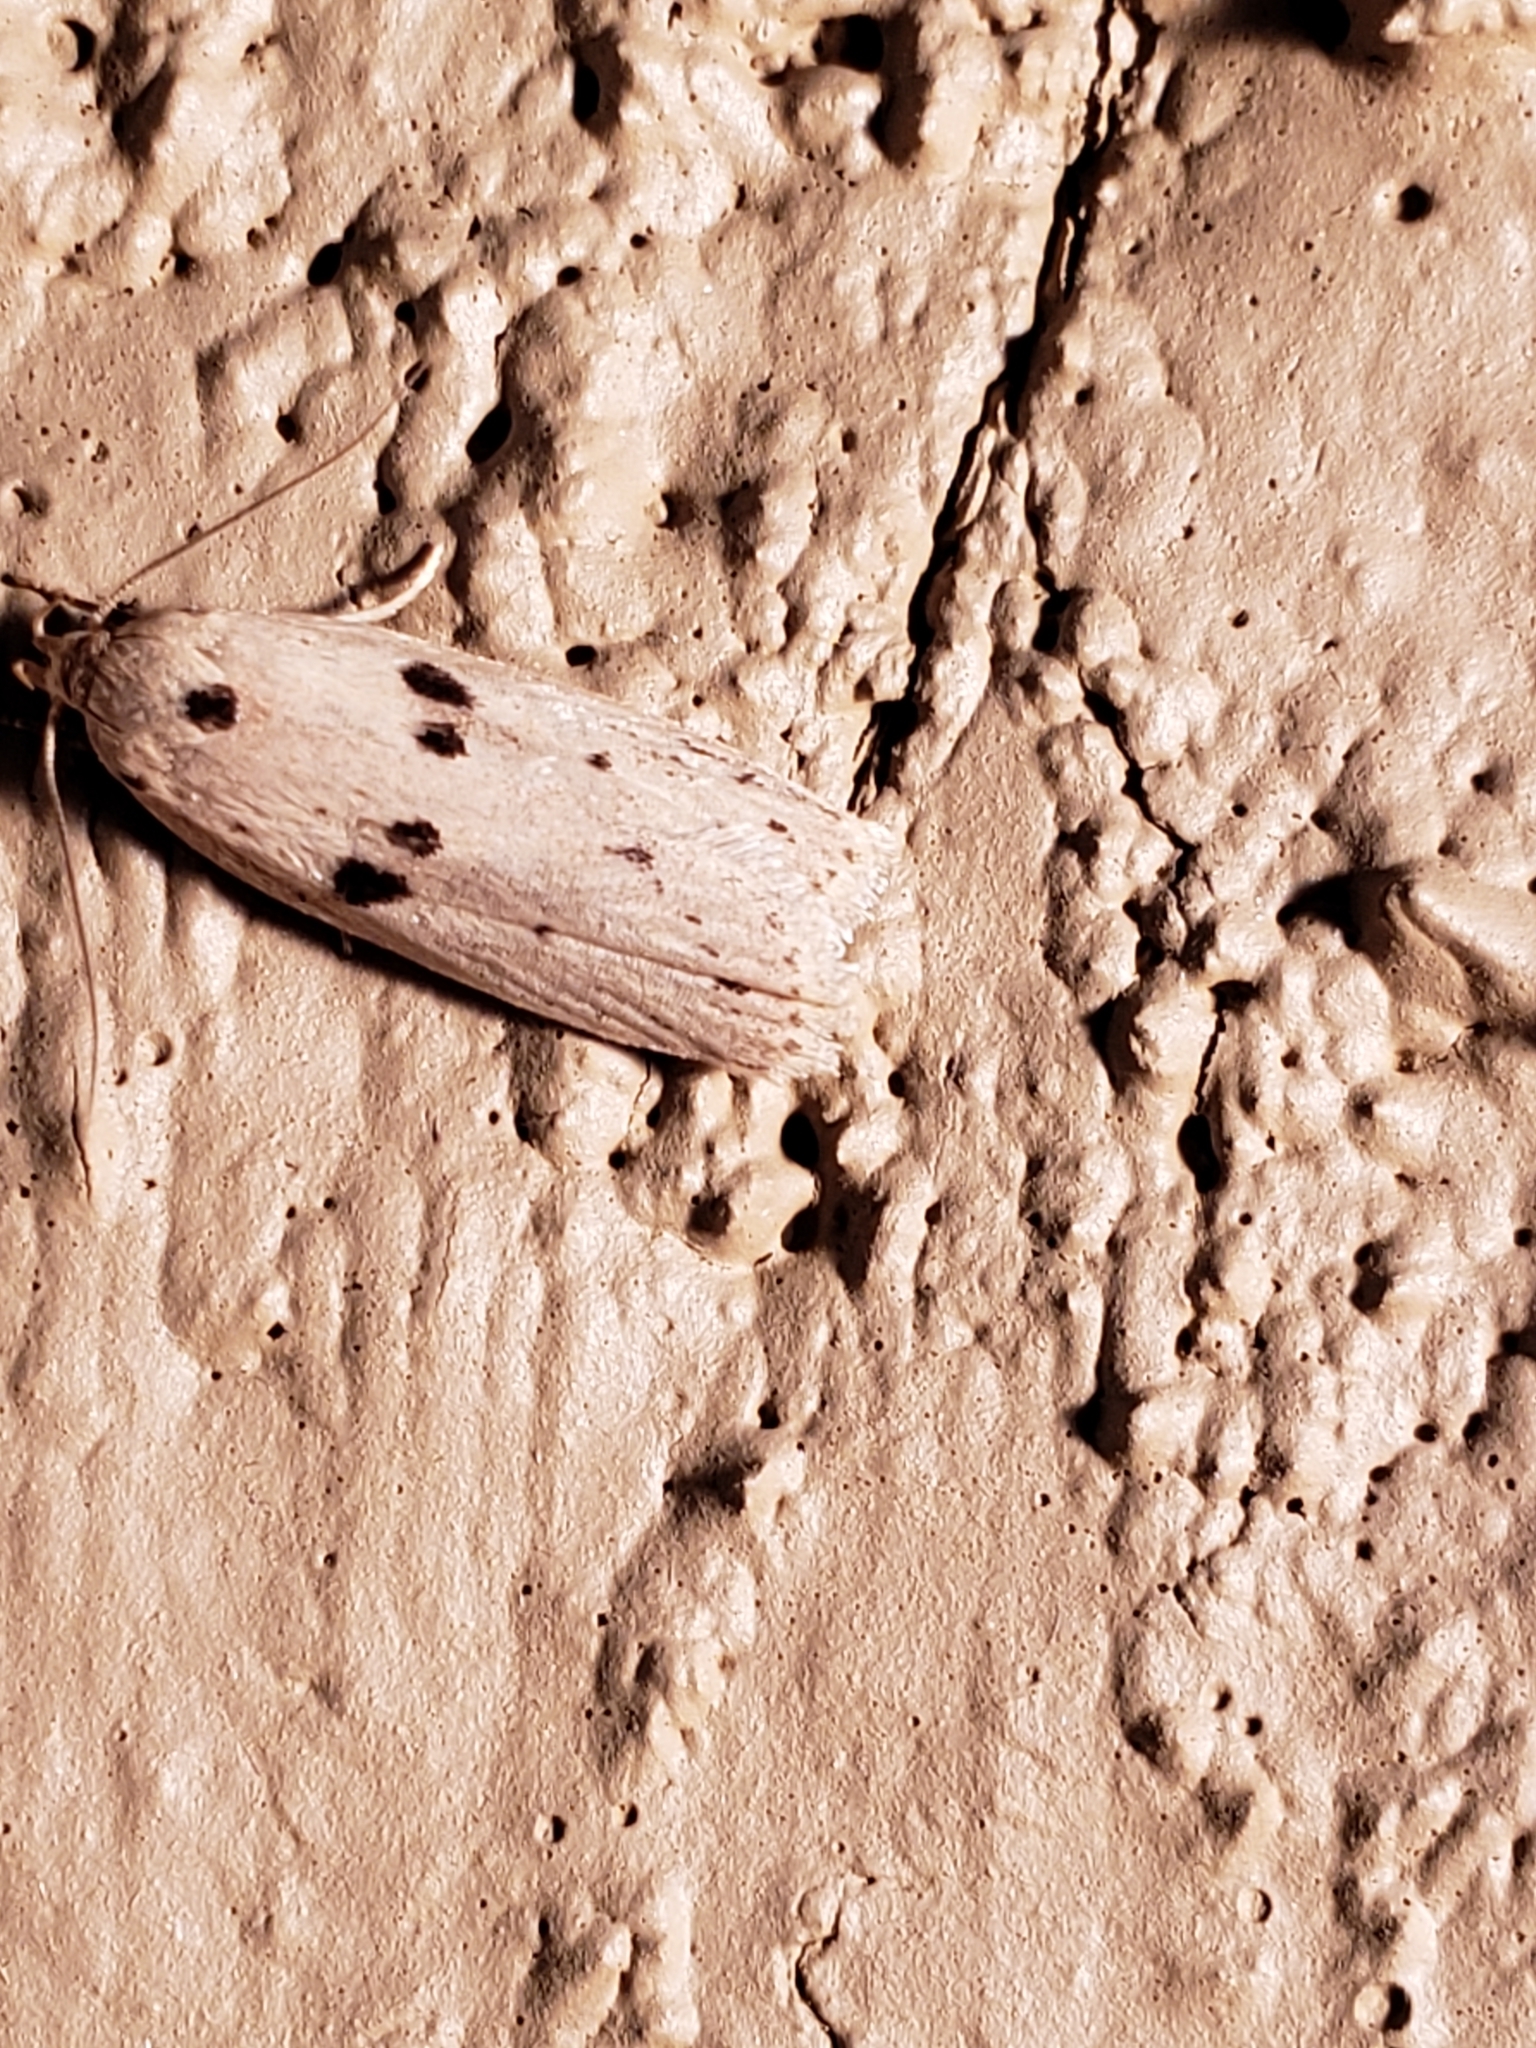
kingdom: Animalia
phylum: Arthropoda
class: Insecta
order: Lepidoptera
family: Peleopodidae
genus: Scythropiodes
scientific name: Scythropiodes issikii
